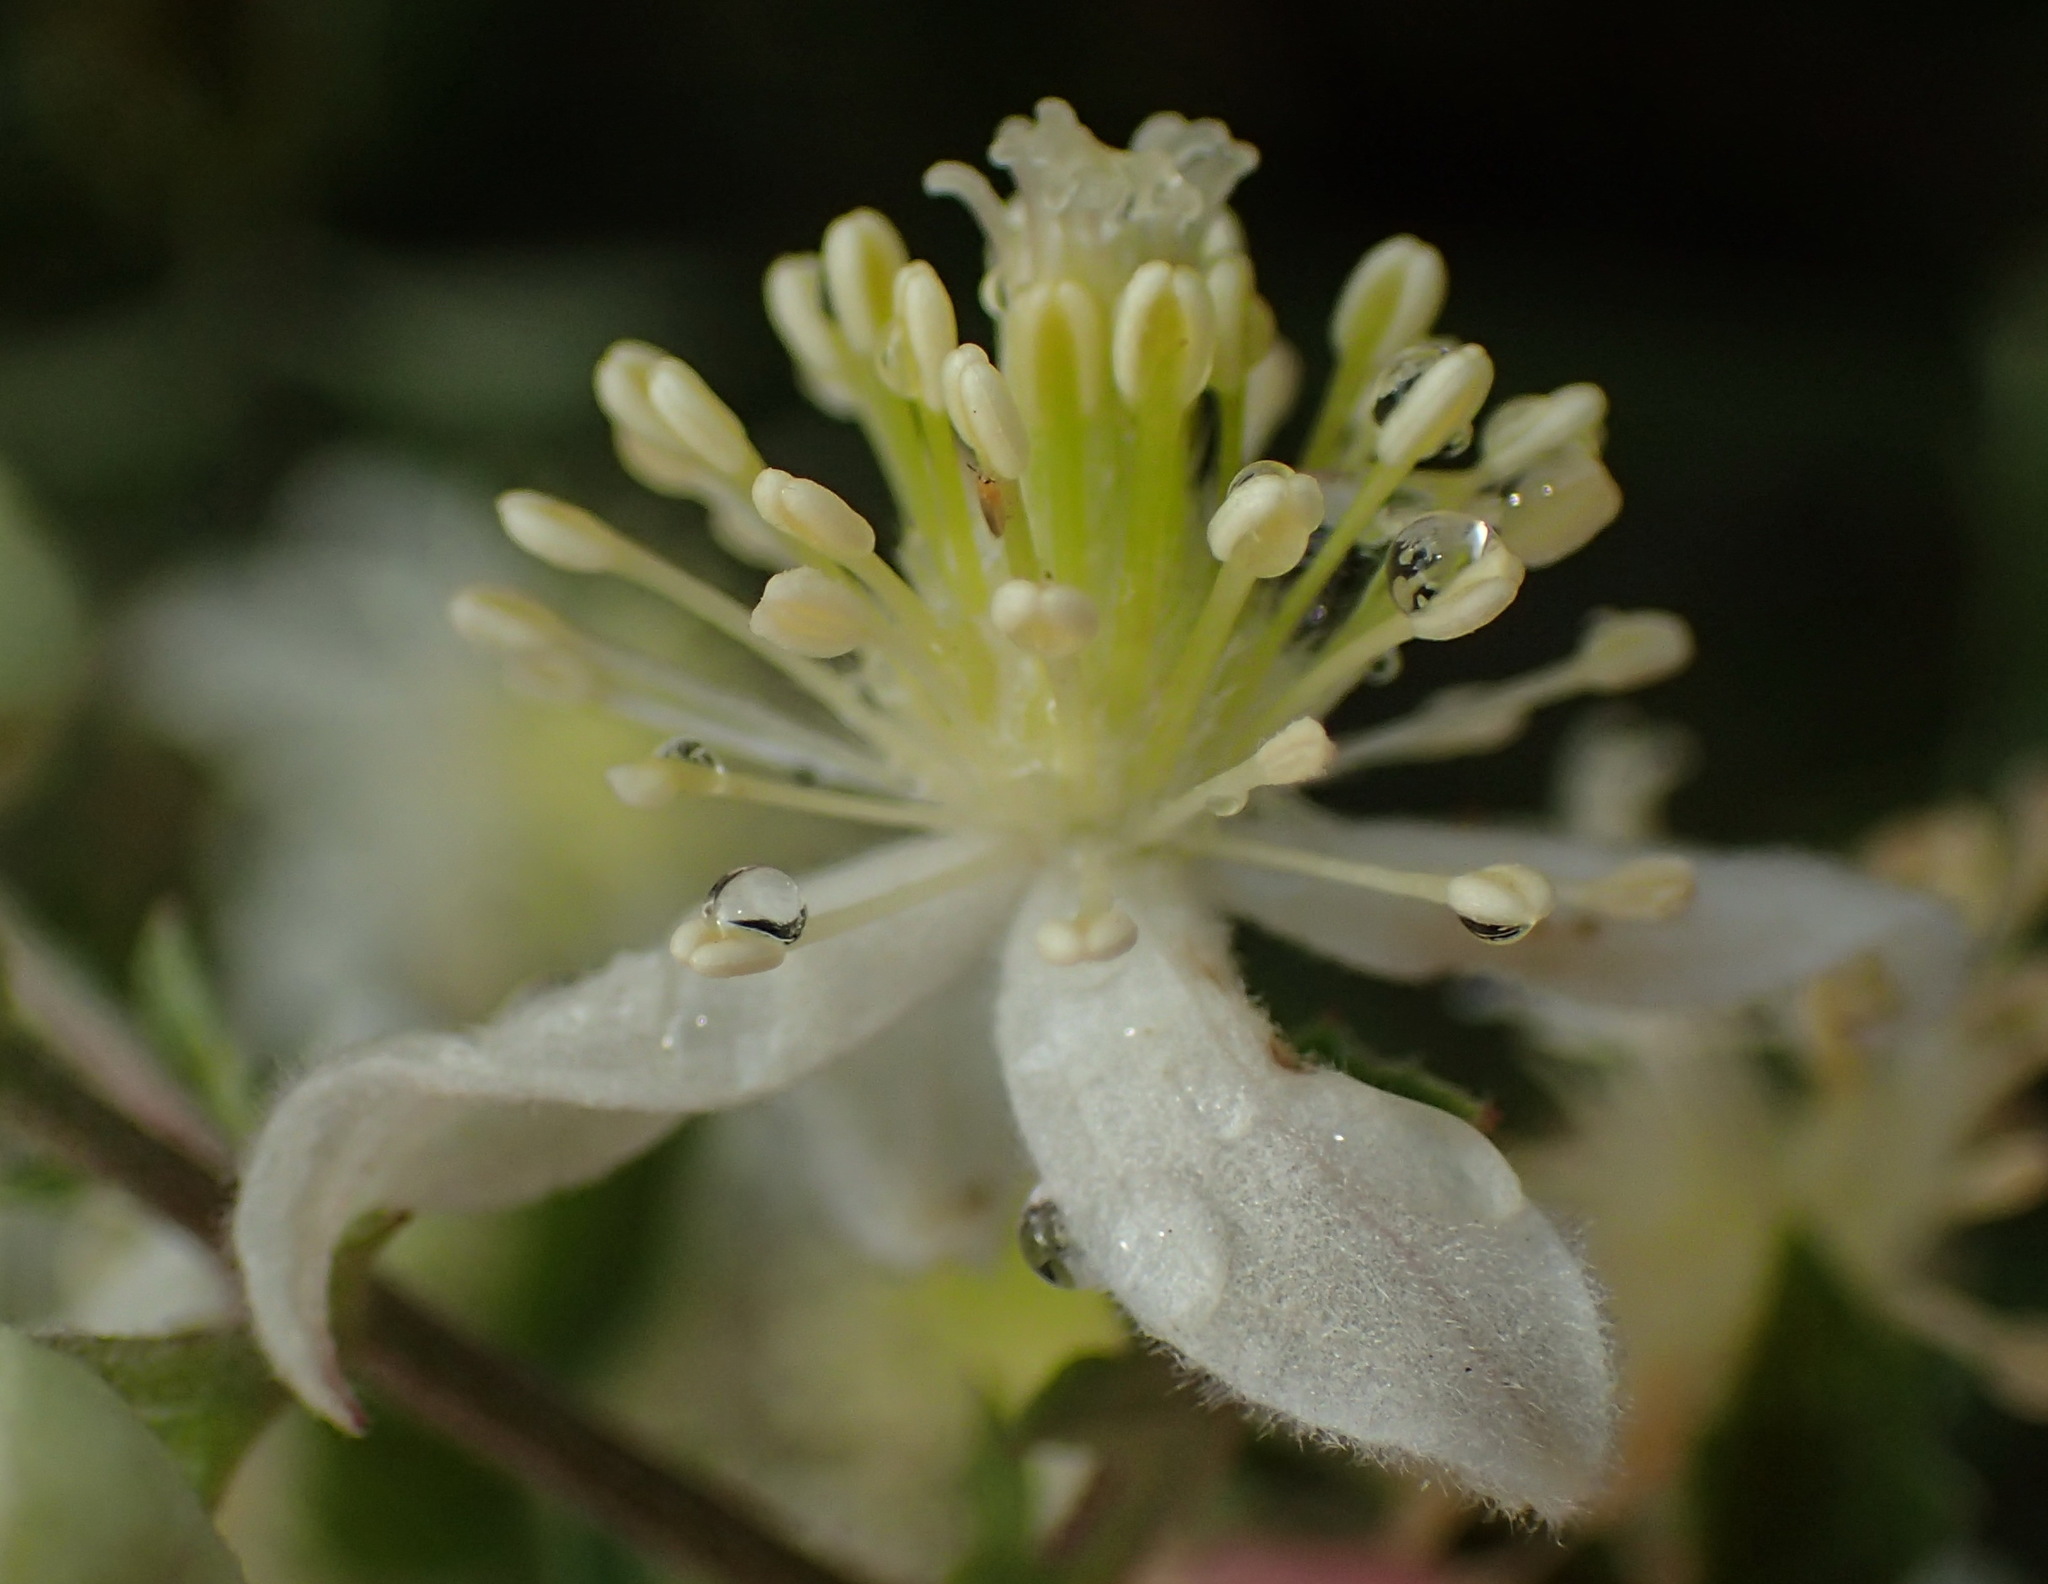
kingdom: Plantae
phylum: Tracheophyta
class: Magnoliopsida
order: Ranunculales
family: Ranunculaceae
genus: Clematis
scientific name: Clematis brachiata
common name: Traveler's-joy
